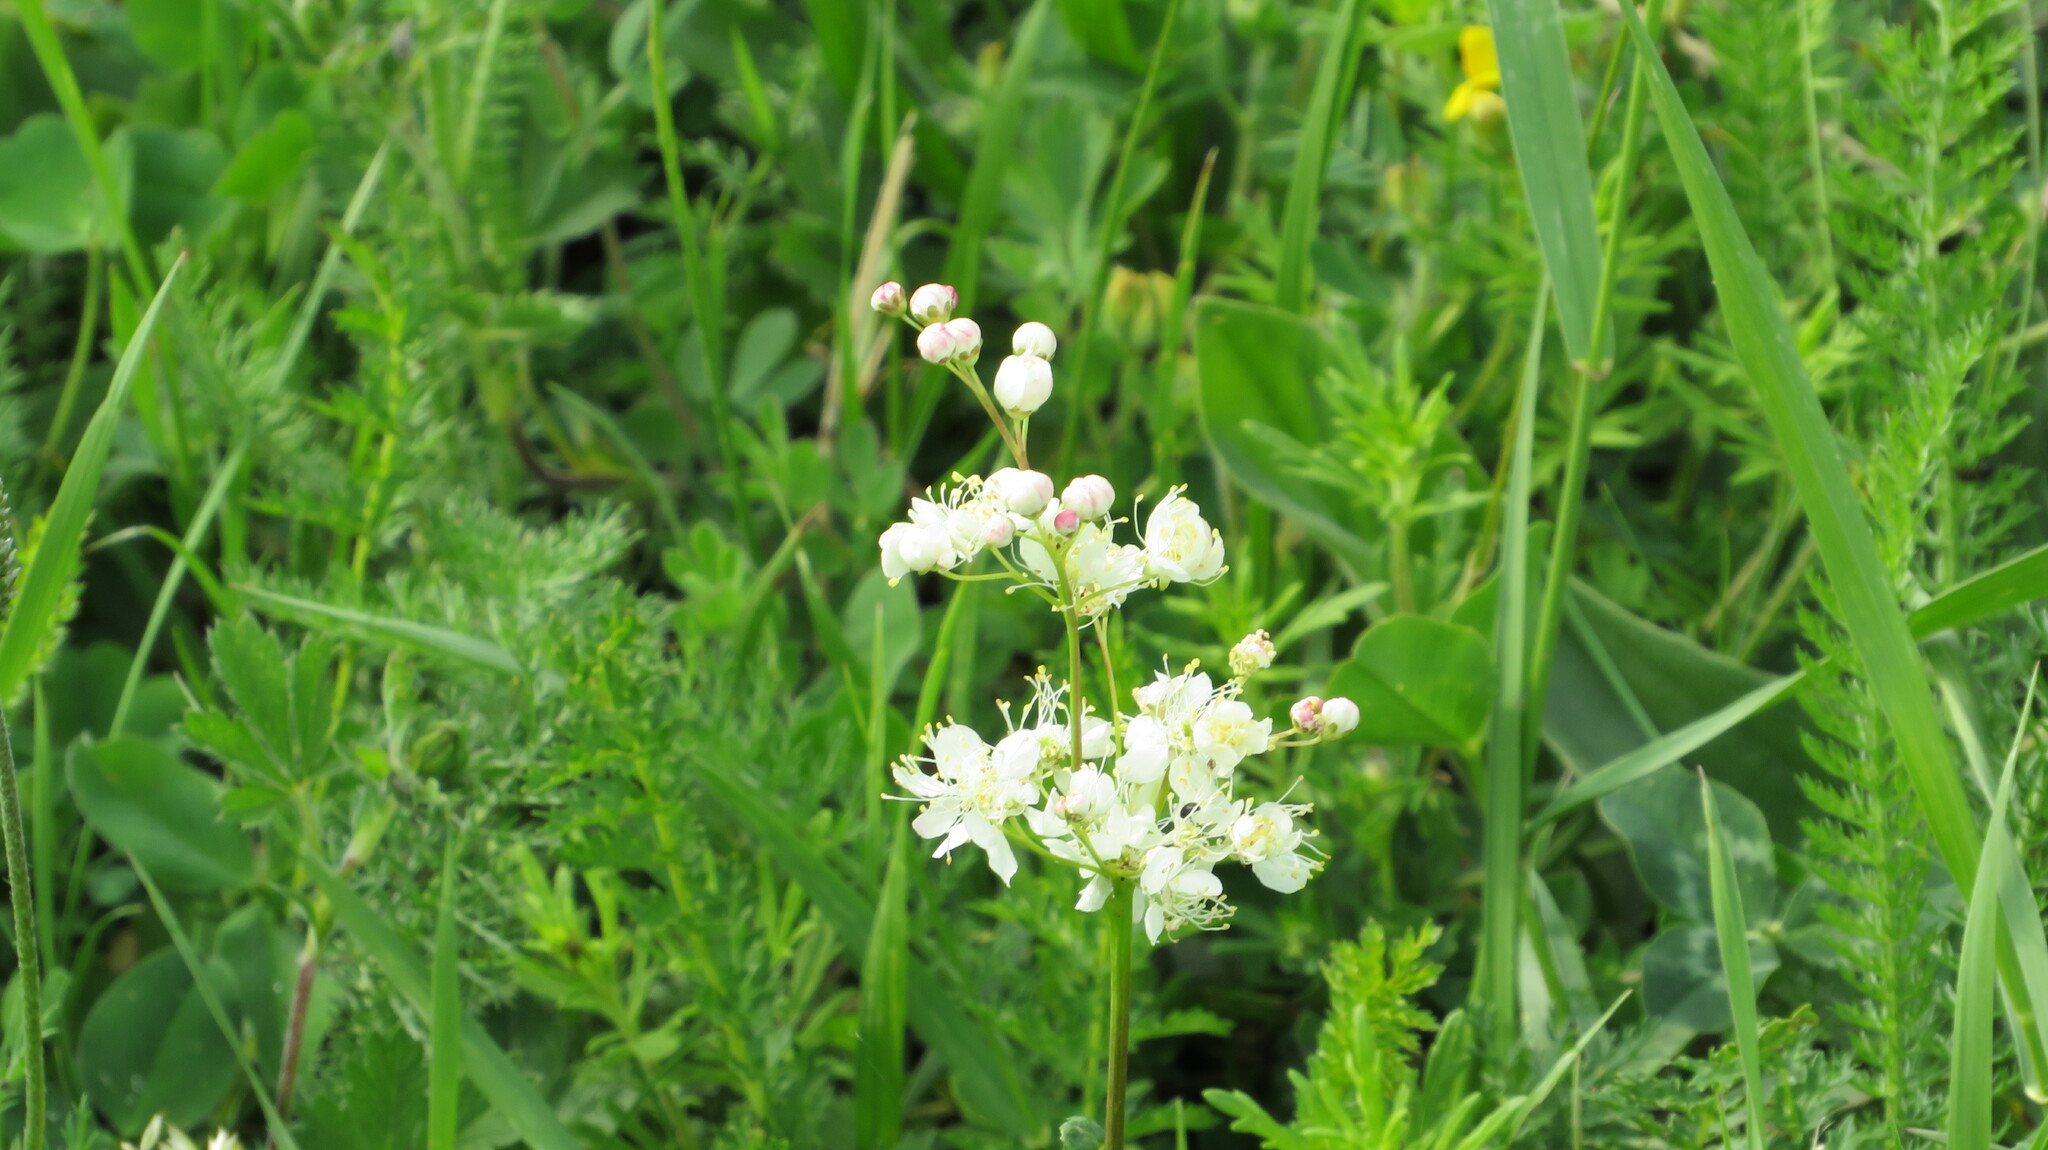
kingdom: Plantae
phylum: Tracheophyta
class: Magnoliopsida
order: Rosales
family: Rosaceae
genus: Filipendula
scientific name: Filipendula vulgaris
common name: Dropwort
